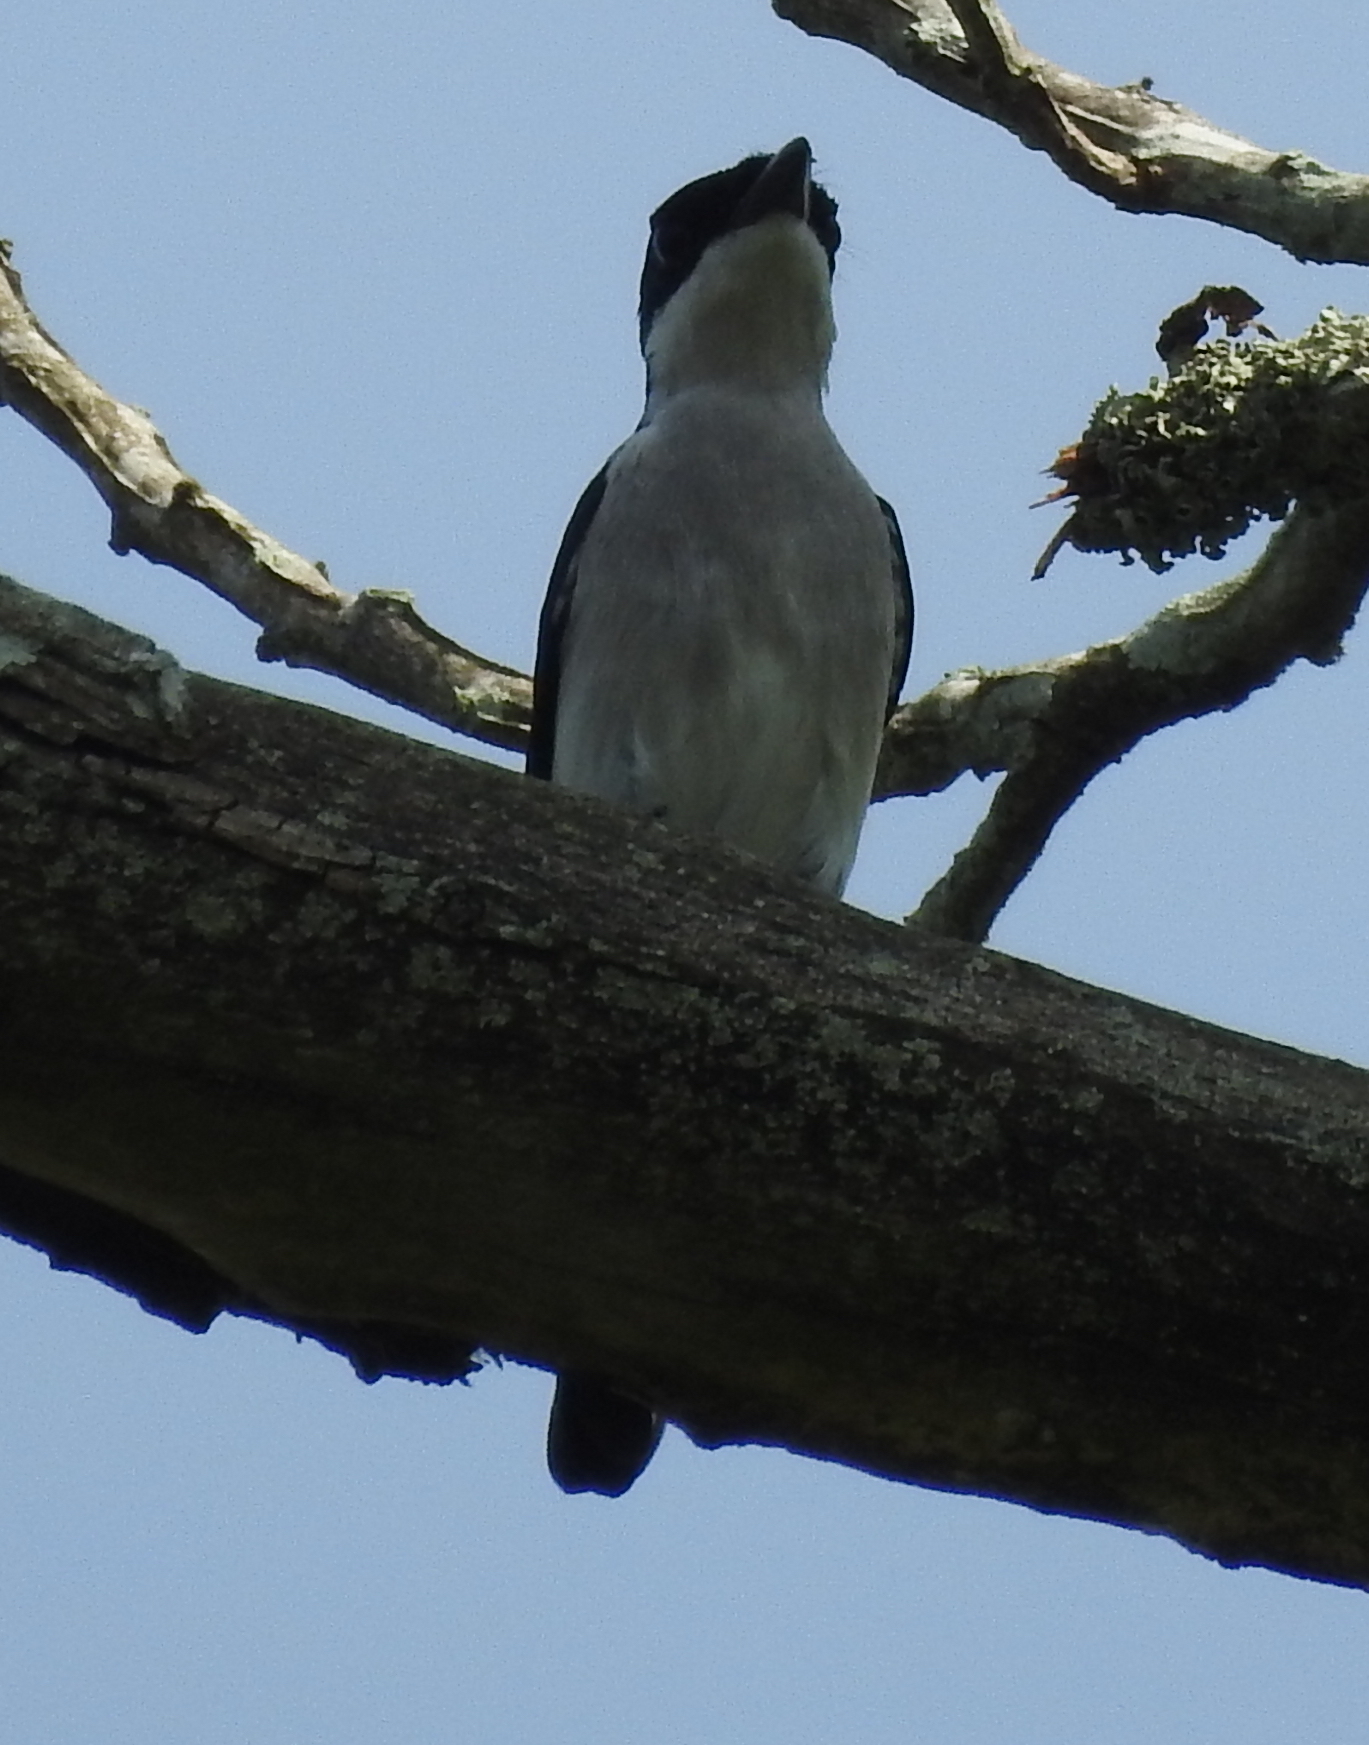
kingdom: Animalia
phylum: Chordata
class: Aves
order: Passeriformes
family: Tephrodornithidae
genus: Hemipus
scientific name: Hemipus hirundinaceus
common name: Black-winged flycatcher-shrike
